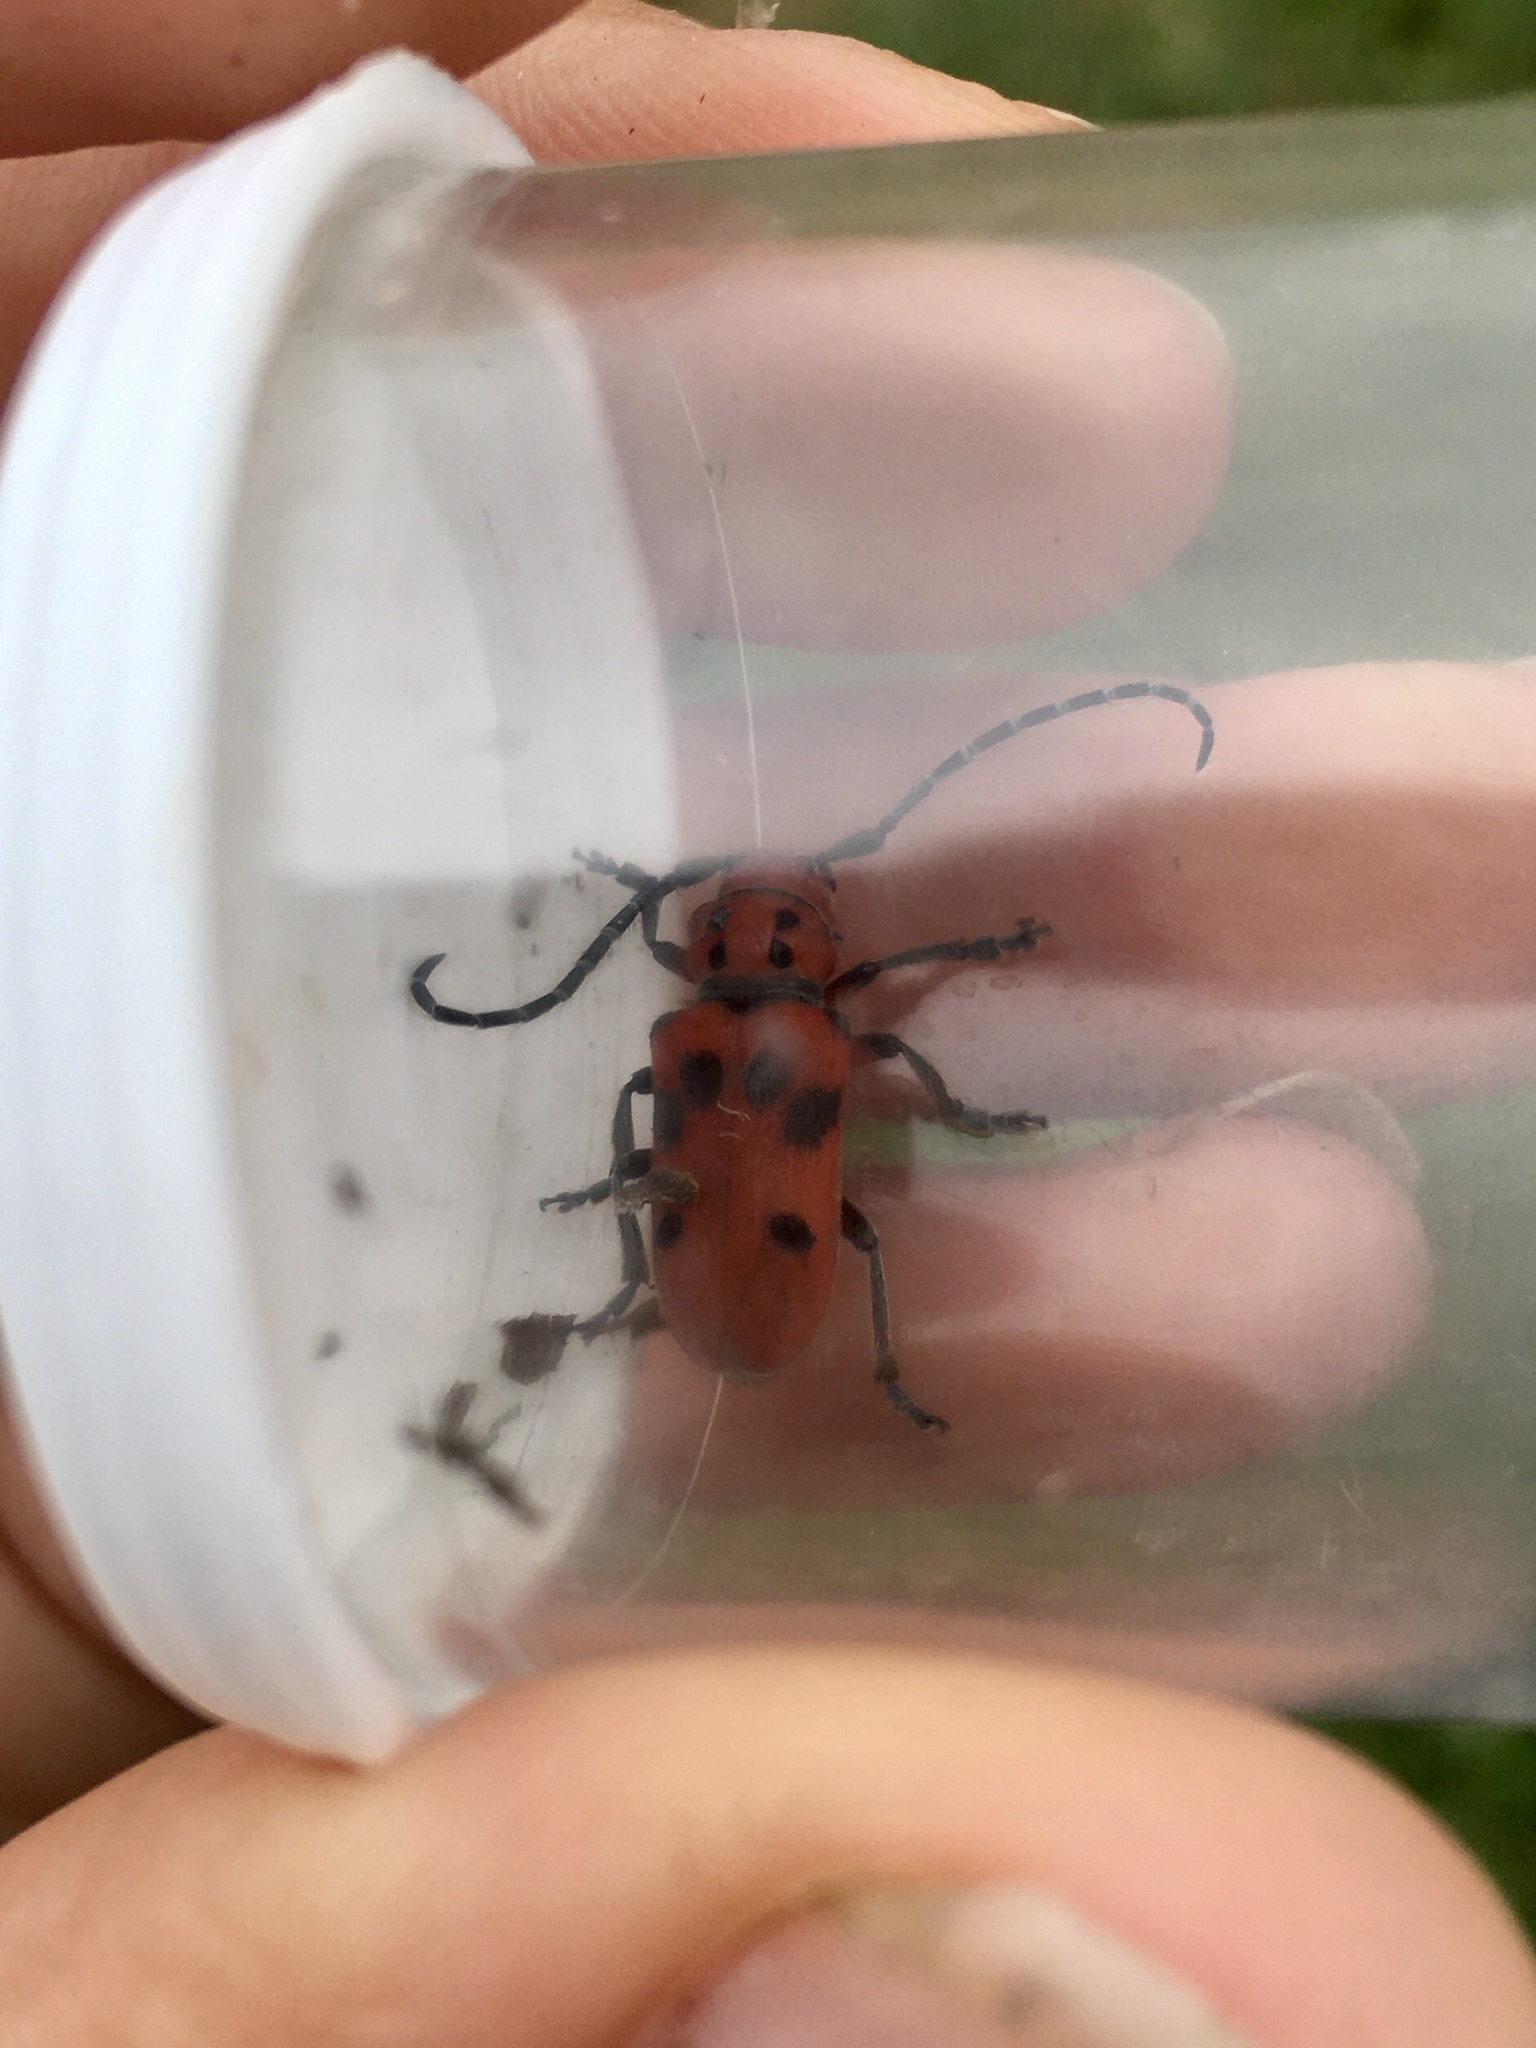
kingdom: Animalia
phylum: Arthropoda
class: Insecta
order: Coleoptera
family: Cerambycidae
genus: Tetraopes
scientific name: Tetraopes femoratus
